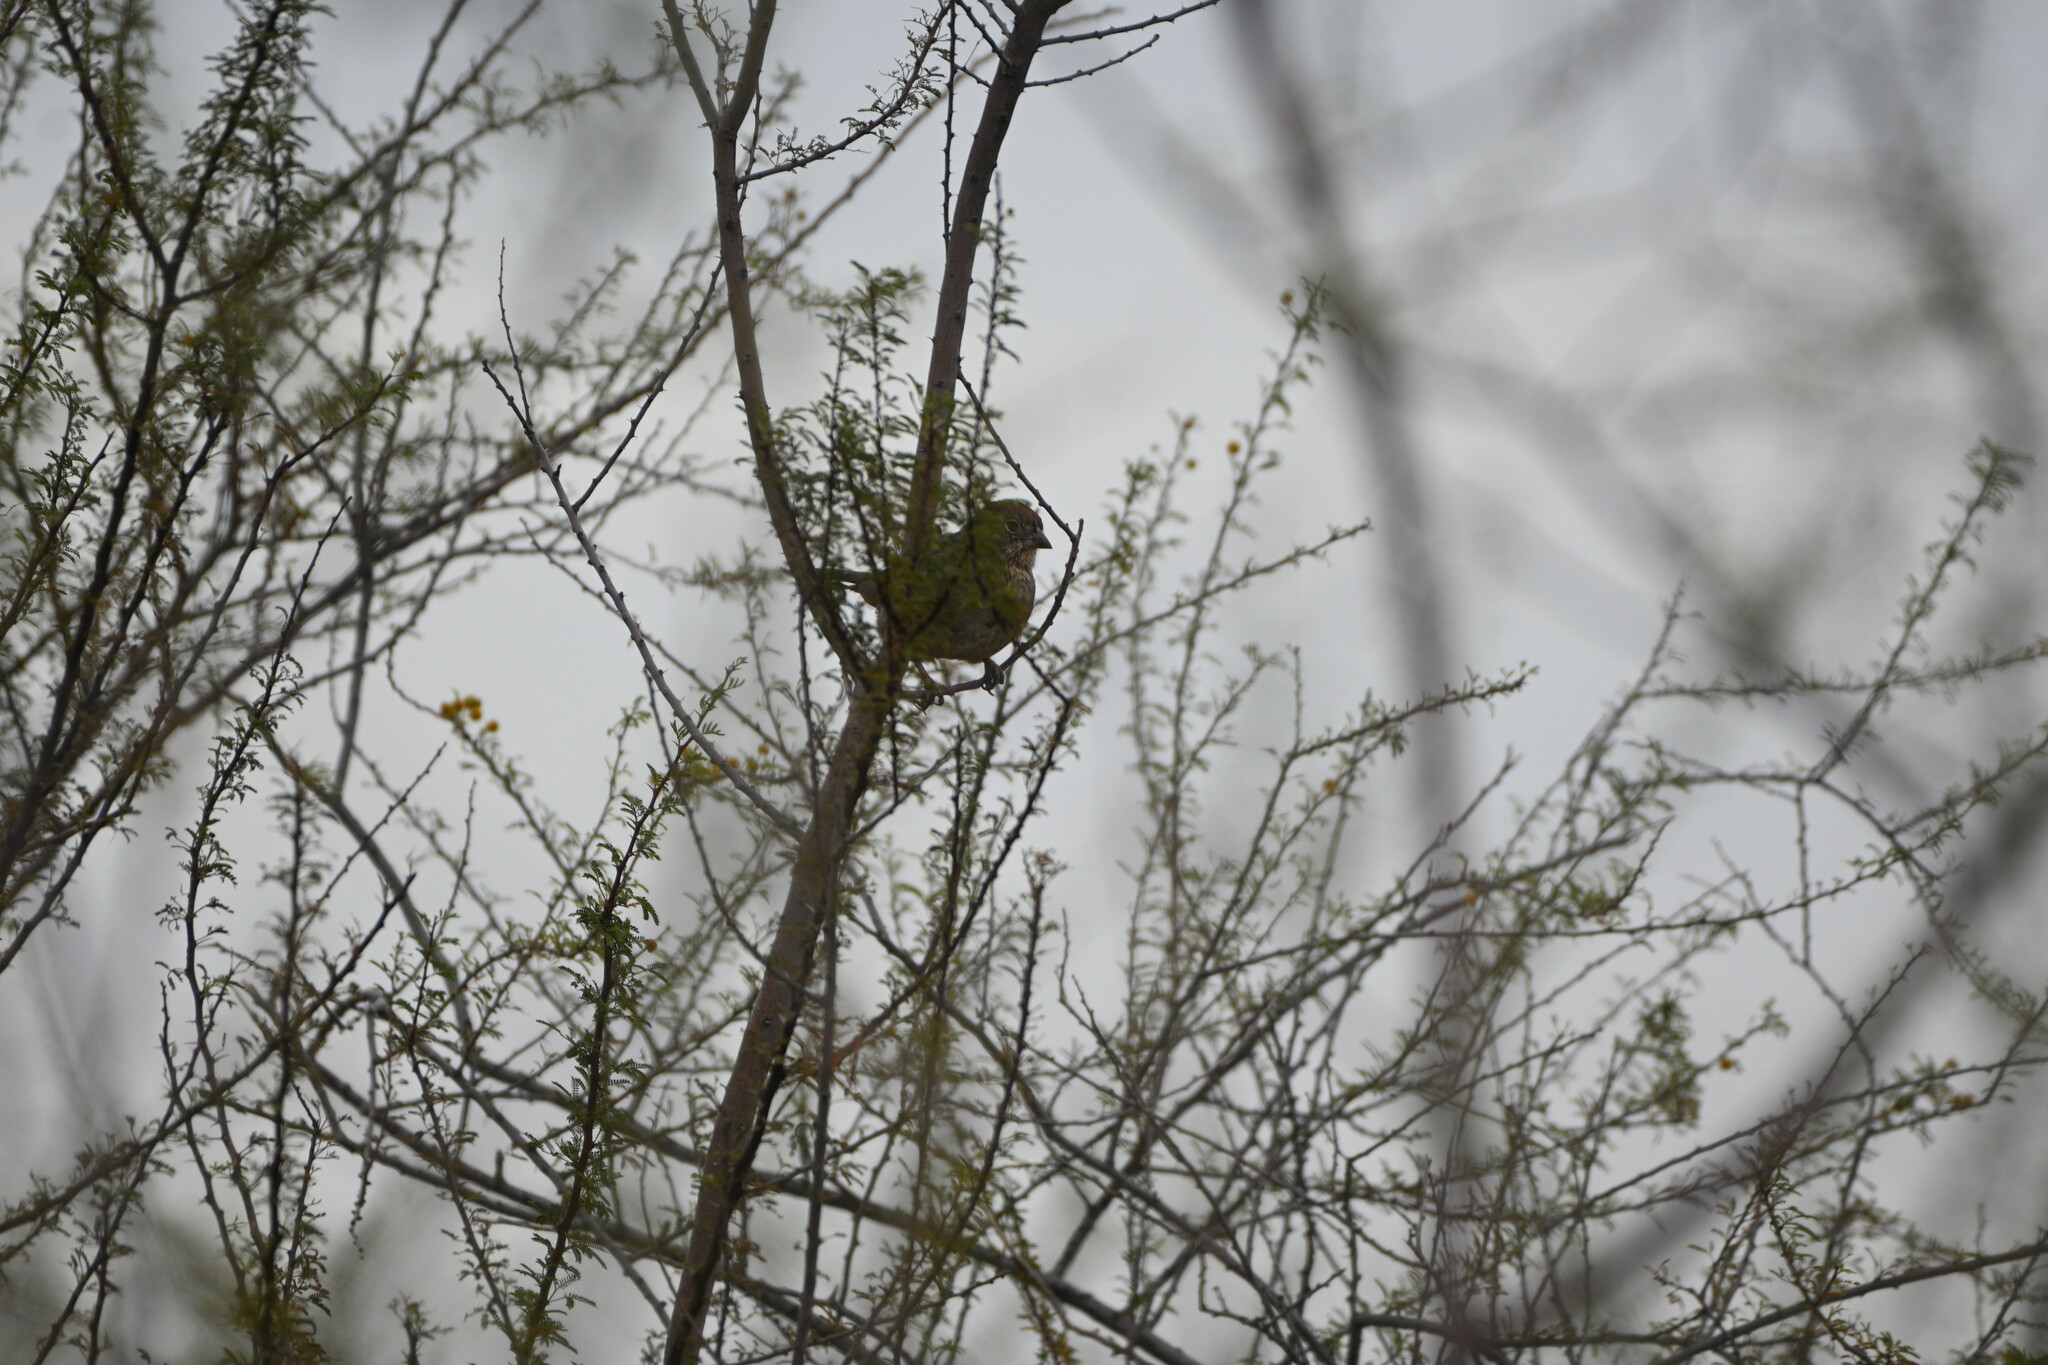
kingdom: Animalia
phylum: Chordata
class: Aves
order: Passeriformes
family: Passerellidae
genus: Melozone
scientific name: Melozone fusca
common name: Canyon towhee
